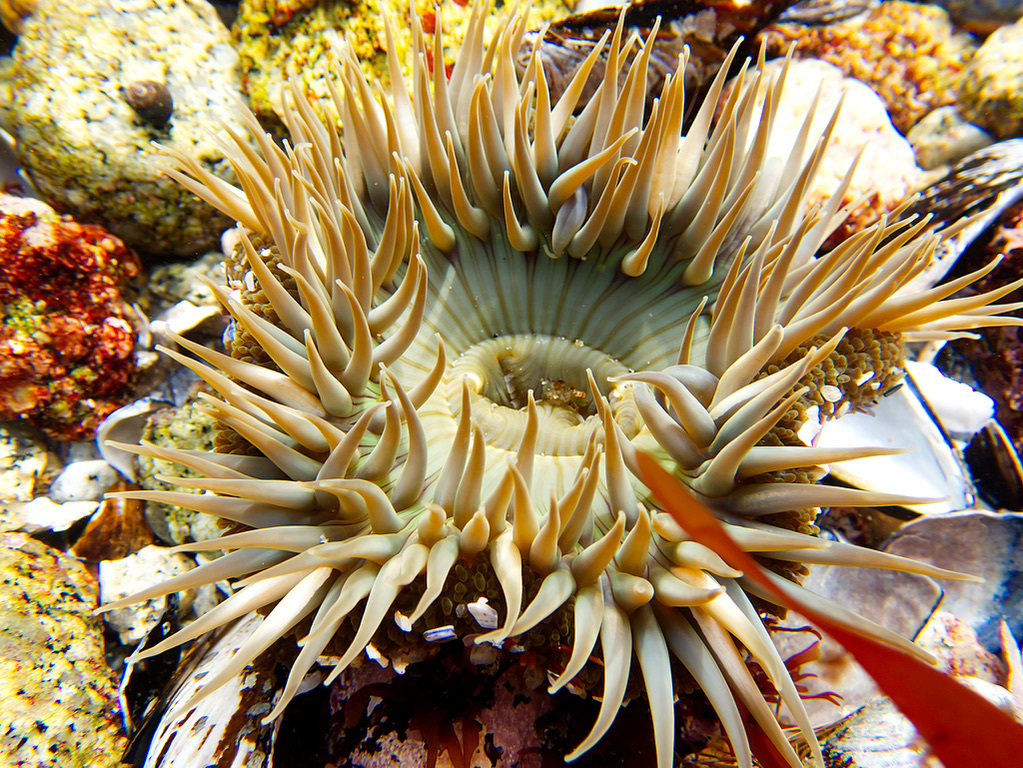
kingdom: Animalia
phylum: Cnidaria
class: Anthozoa
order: Actiniaria
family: Actiniidae
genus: Anthopleura
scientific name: Anthopleura sola
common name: Sun anemone
